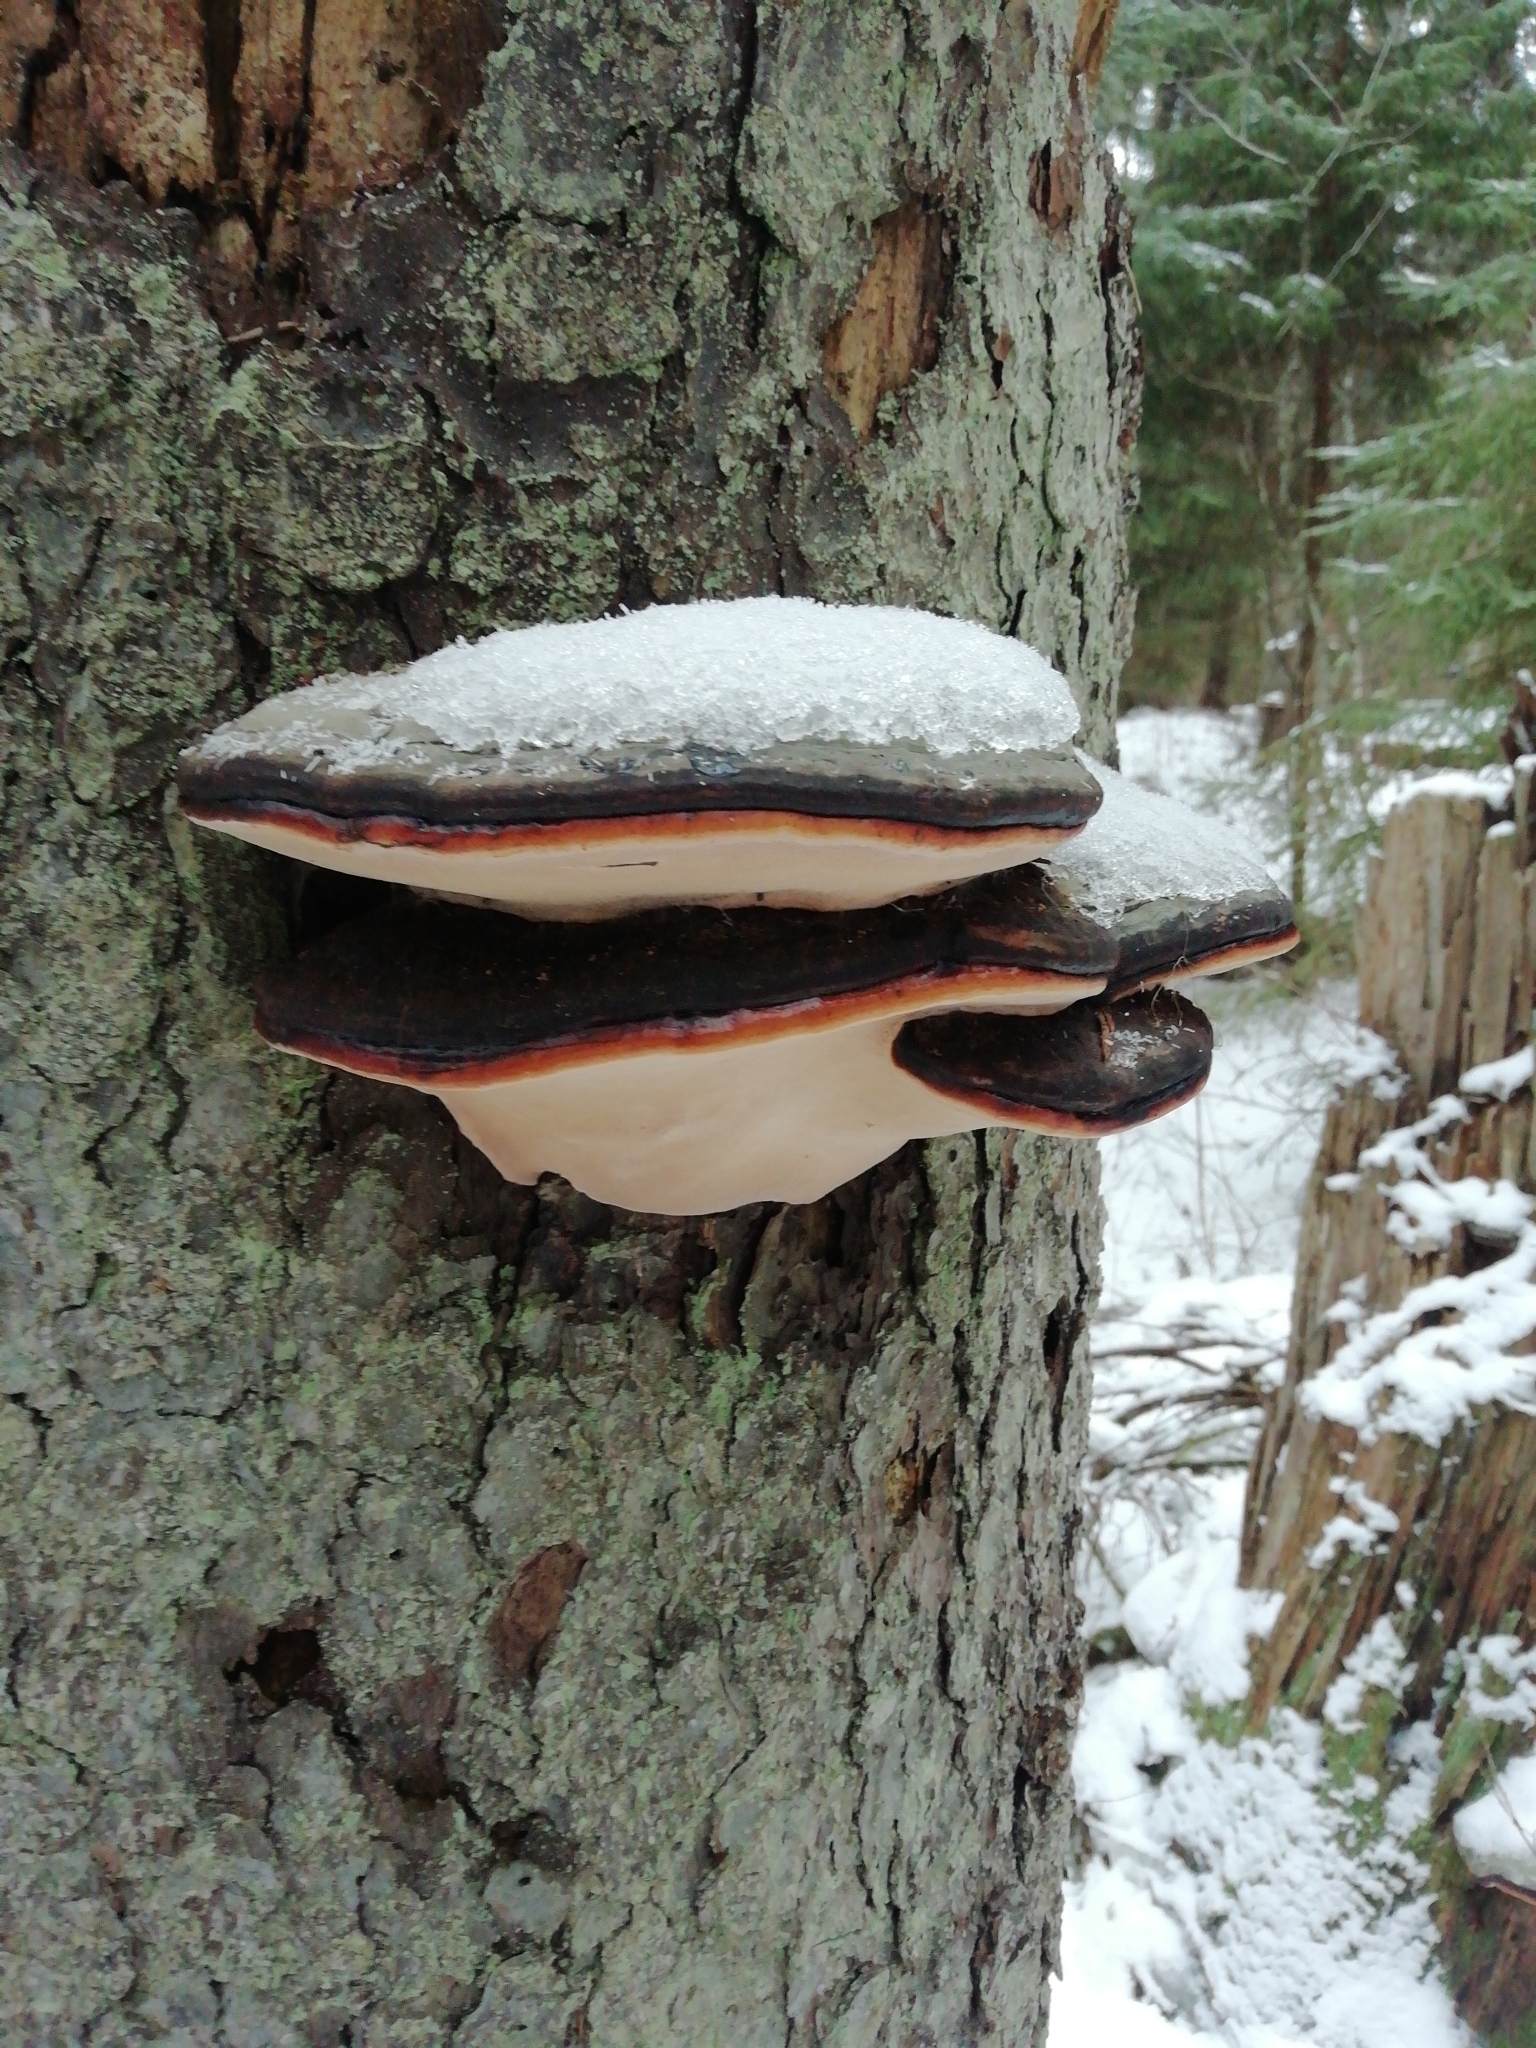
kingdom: Fungi
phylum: Basidiomycota
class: Agaricomycetes
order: Polyporales
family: Fomitopsidaceae
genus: Fomitopsis
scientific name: Fomitopsis pinicola
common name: Red-belted bracket
